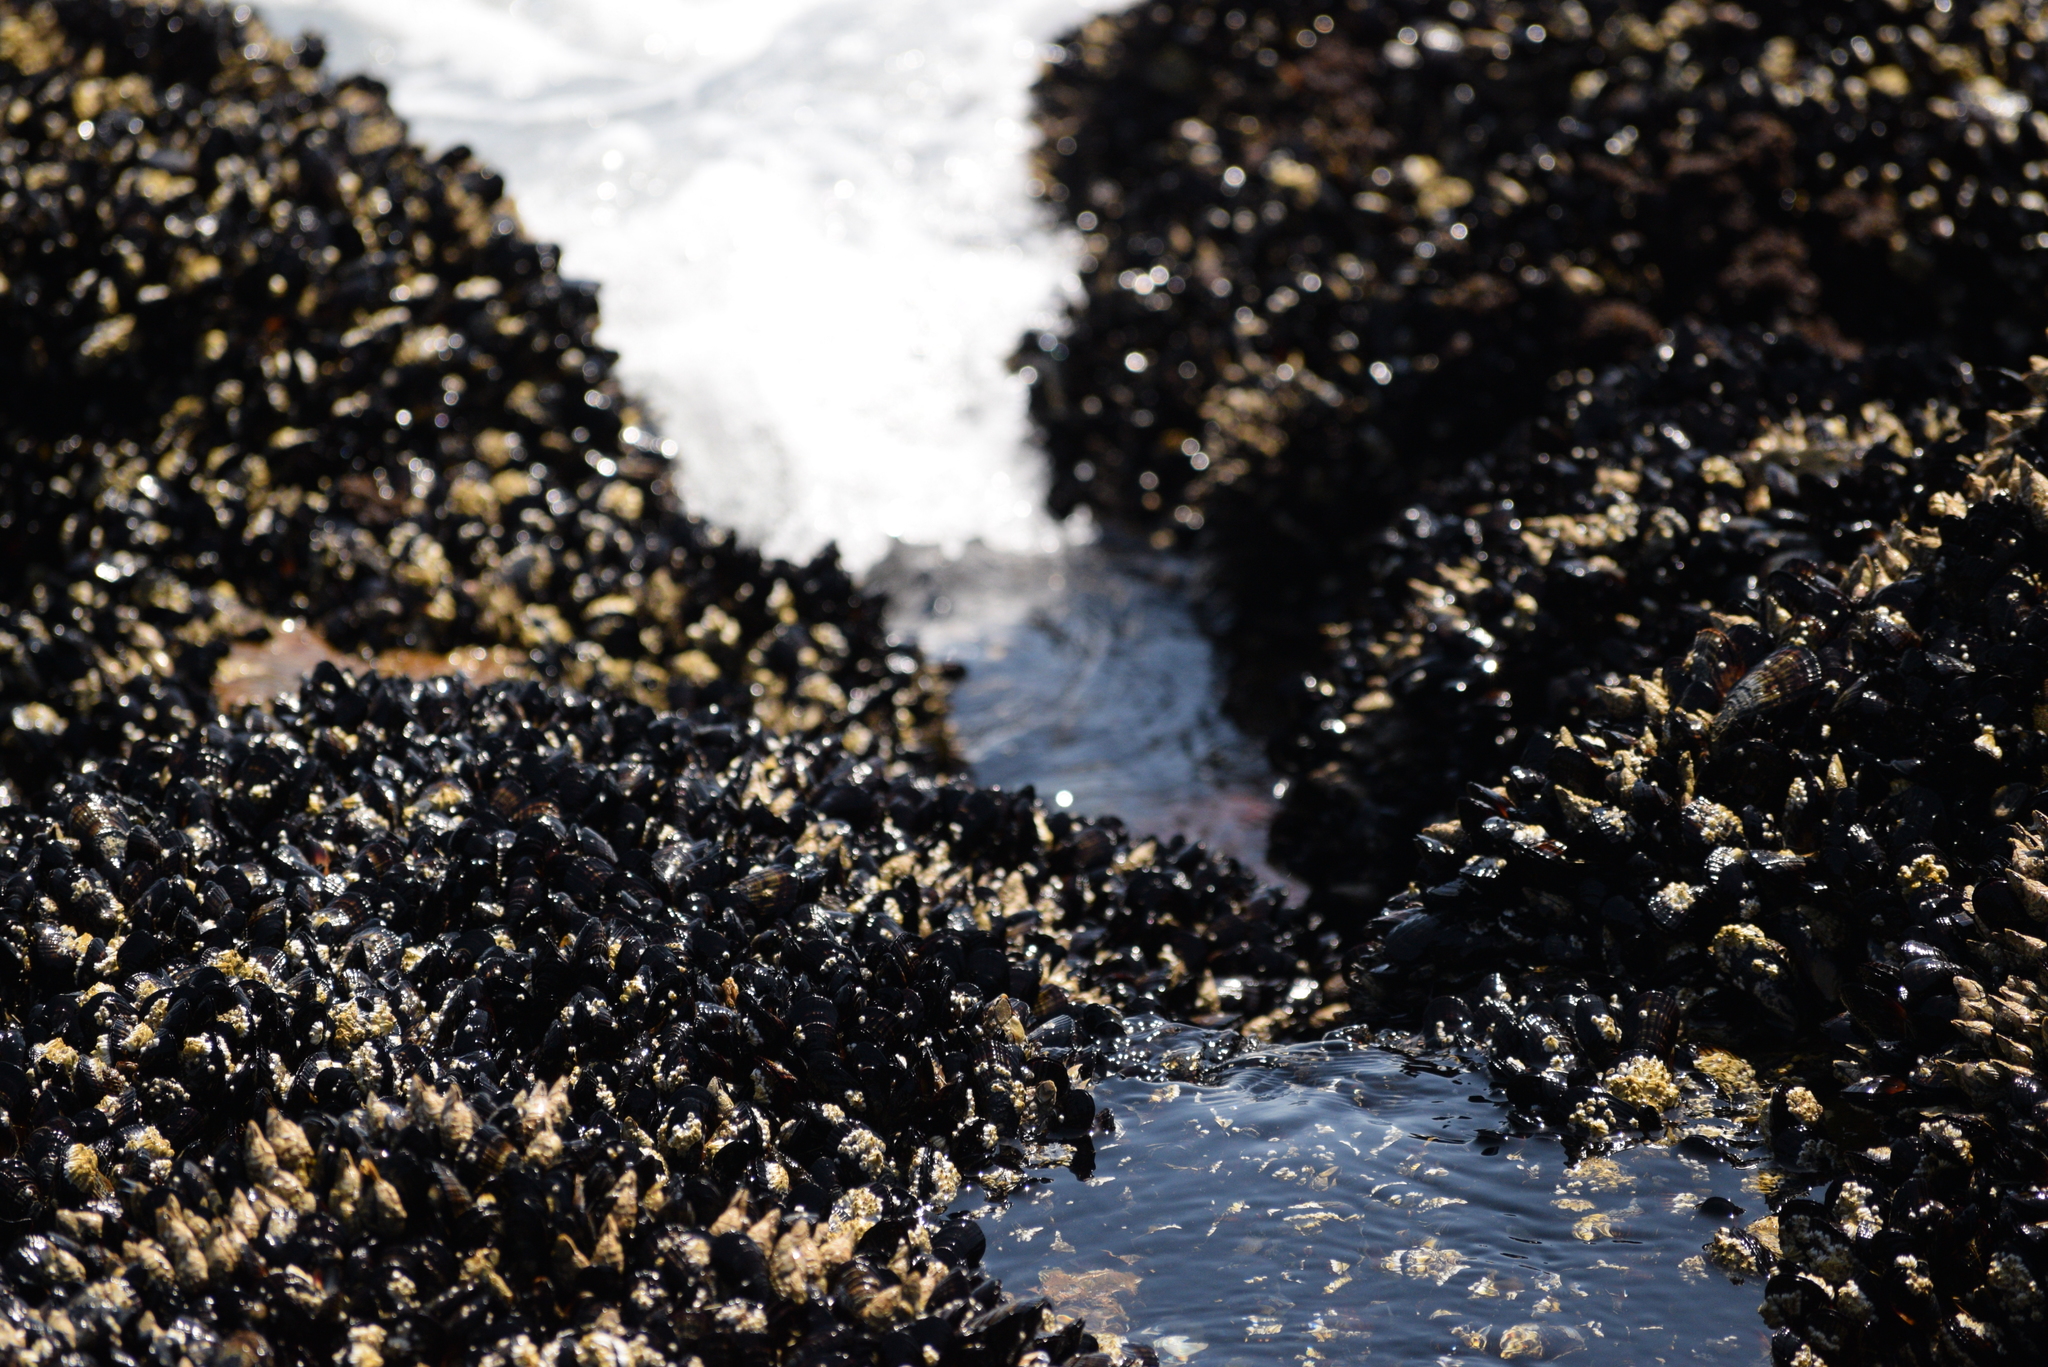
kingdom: Animalia
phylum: Mollusca
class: Bivalvia
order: Mytilida
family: Mytilidae
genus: Mytilus
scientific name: Mytilus californianus
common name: California mussel
